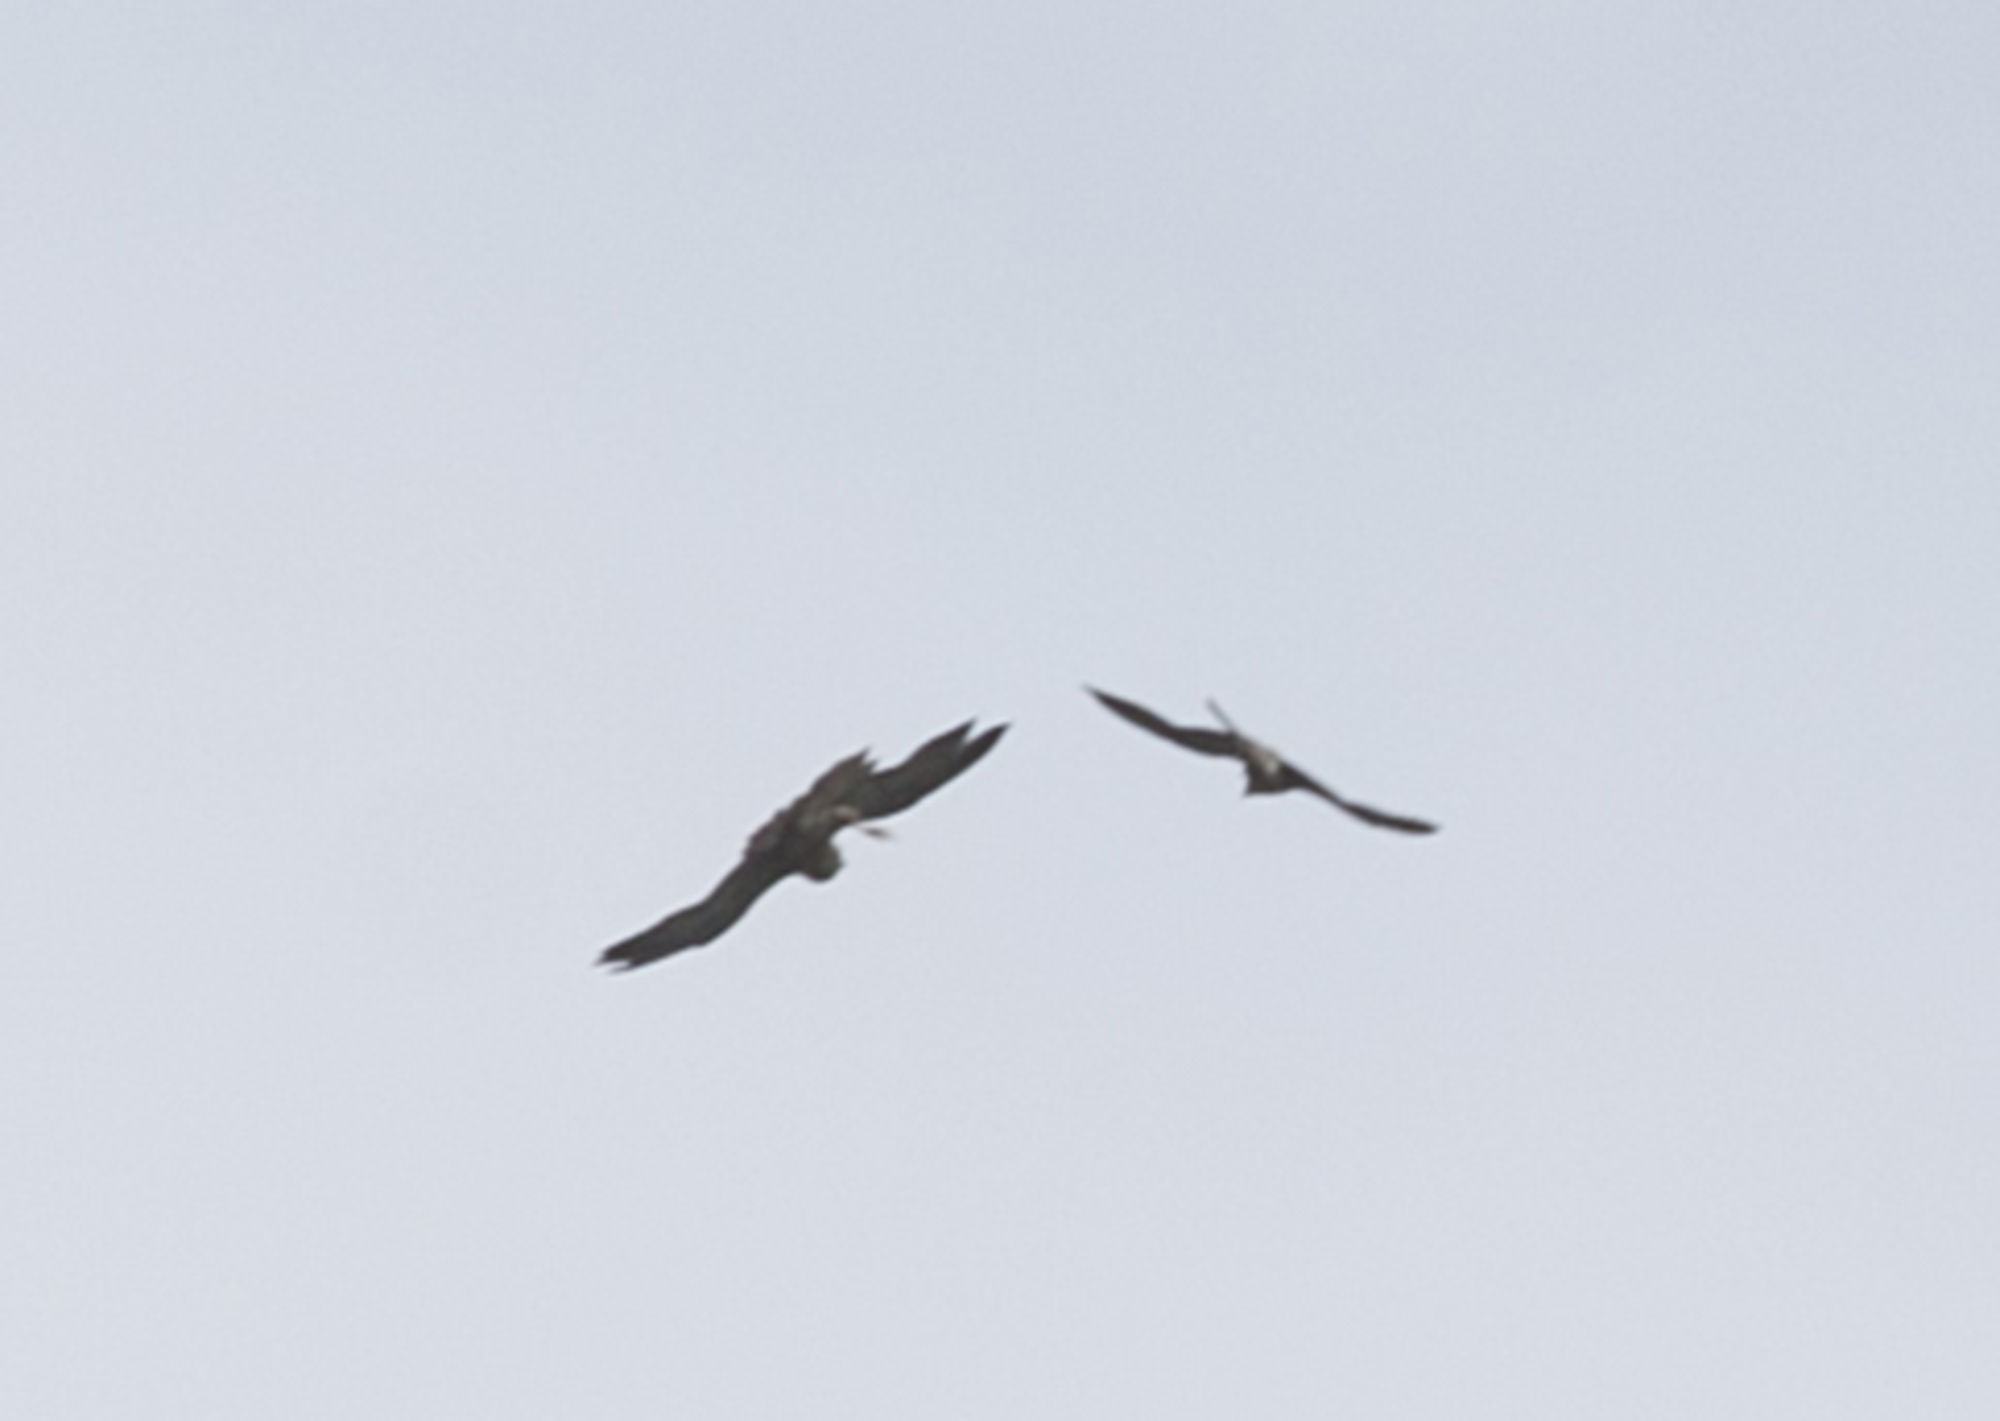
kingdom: Animalia
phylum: Chordata
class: Aves
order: Falconiformes
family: Falconidae
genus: Falco
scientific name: Falco peregrinus
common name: Peregrine falcon
